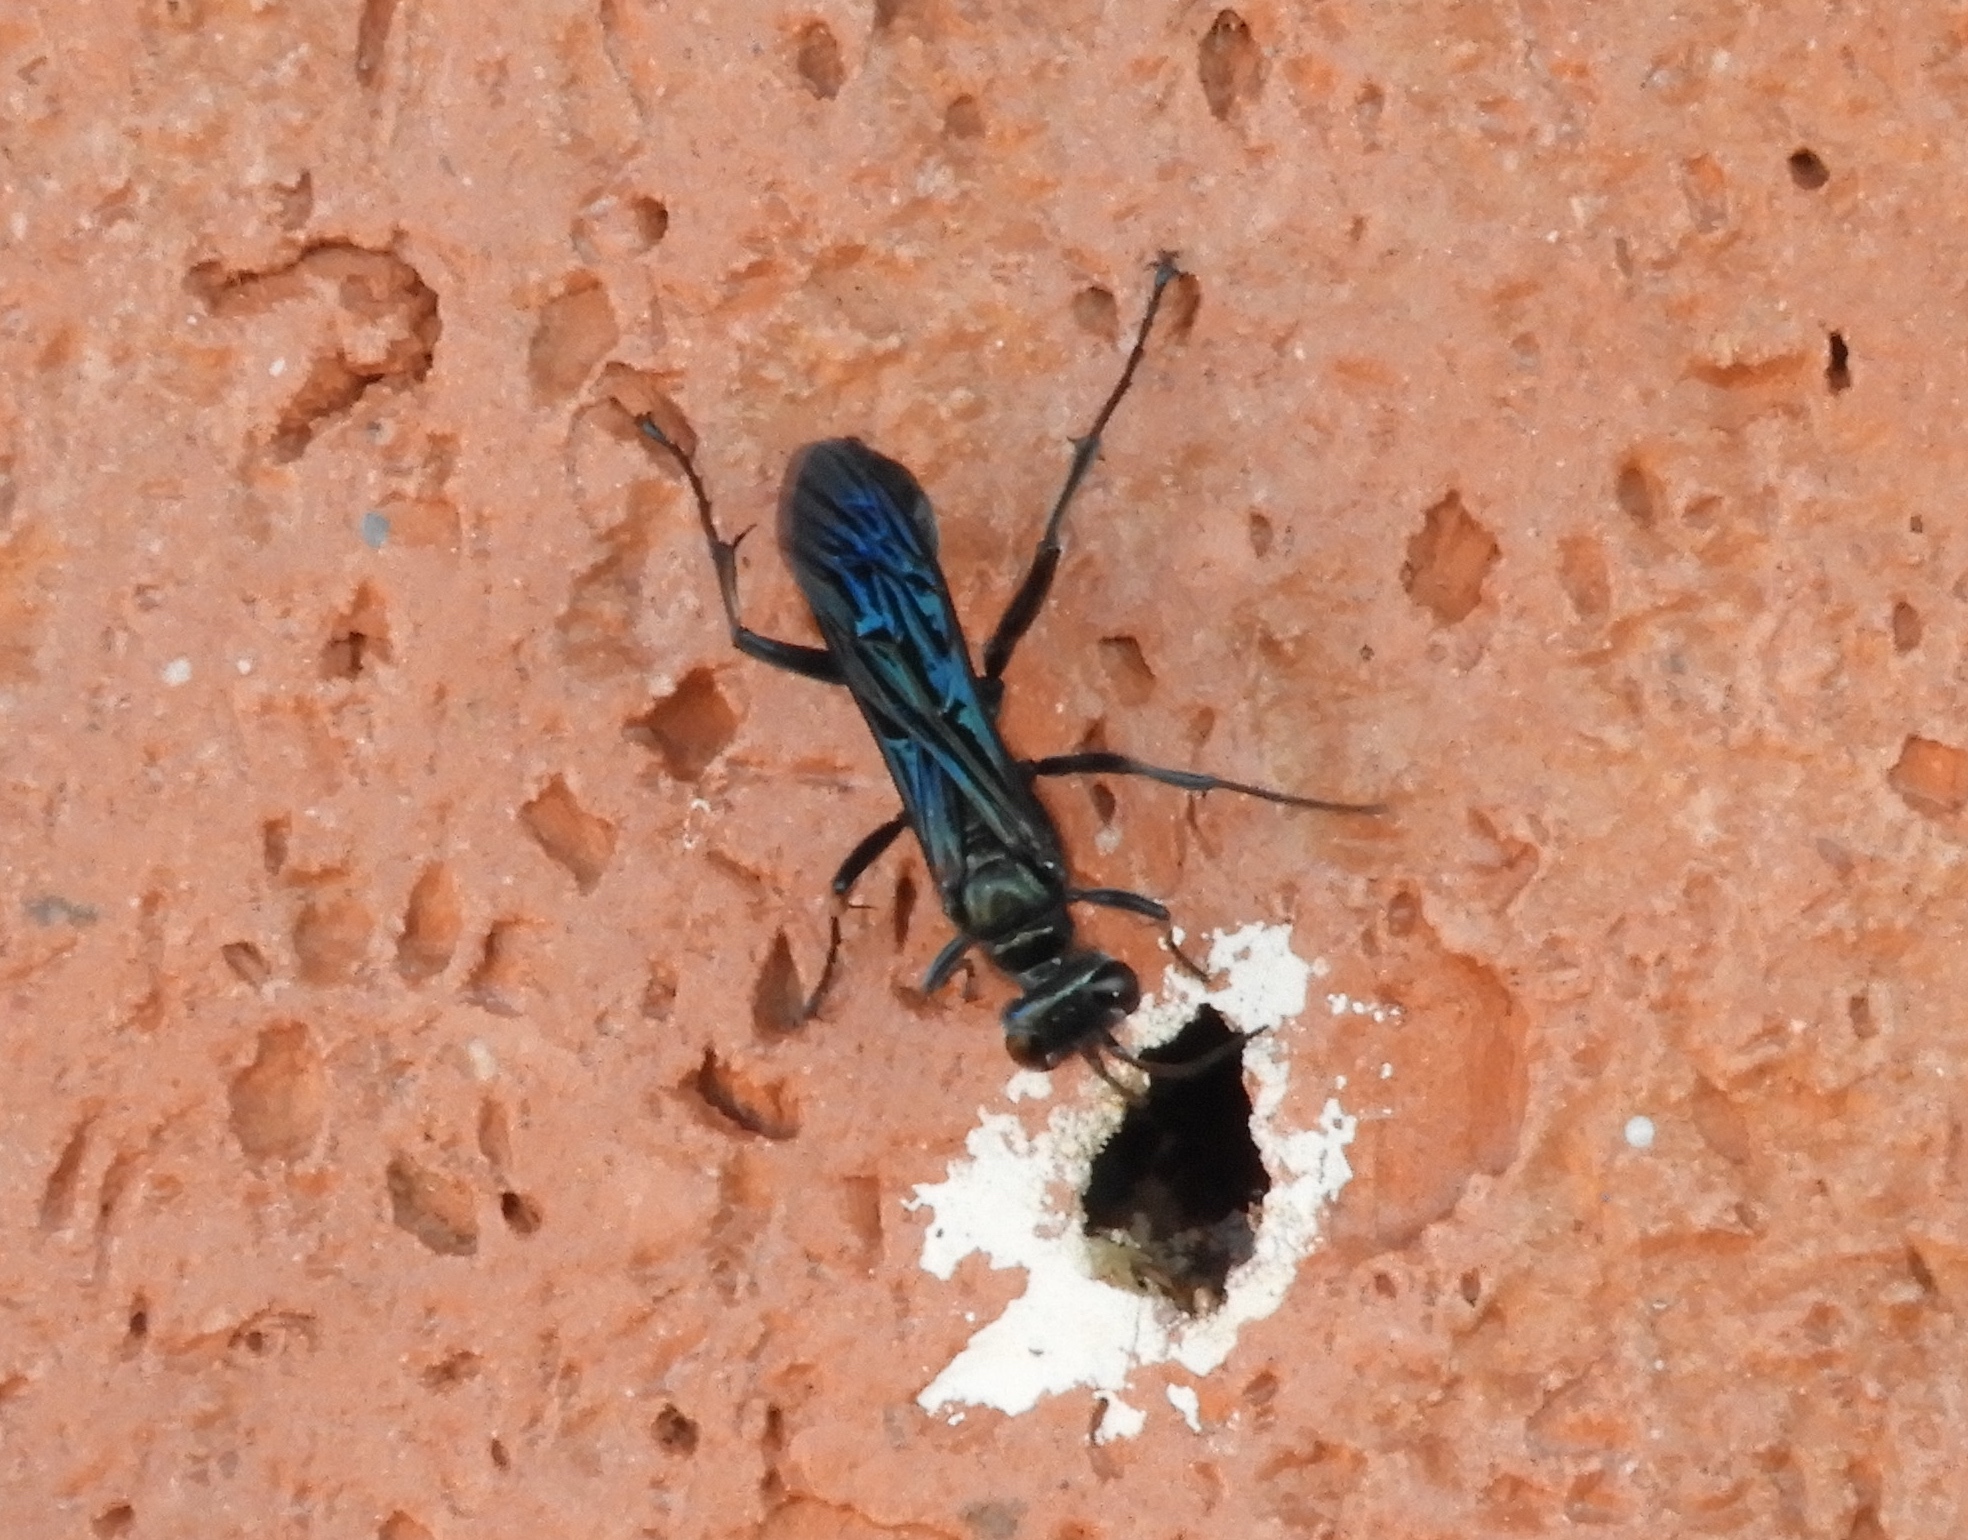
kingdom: Animalia
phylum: Arthropoda
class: Insecta
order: Hymenoptera
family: Sphecidae
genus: Chalybion
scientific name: Chalybion californicum
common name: Mud dauber
